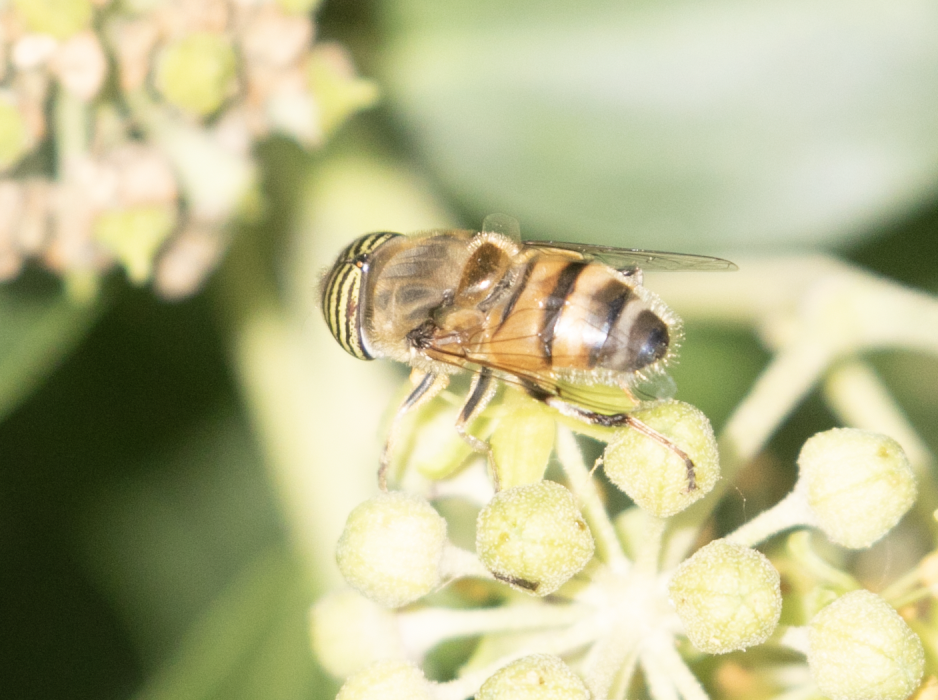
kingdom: Animalia
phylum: Arthropoda
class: Insecta
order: Diptera
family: Syrphidae
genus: Eristalinus
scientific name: Eristalinus taeniops
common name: Syrphid fly
